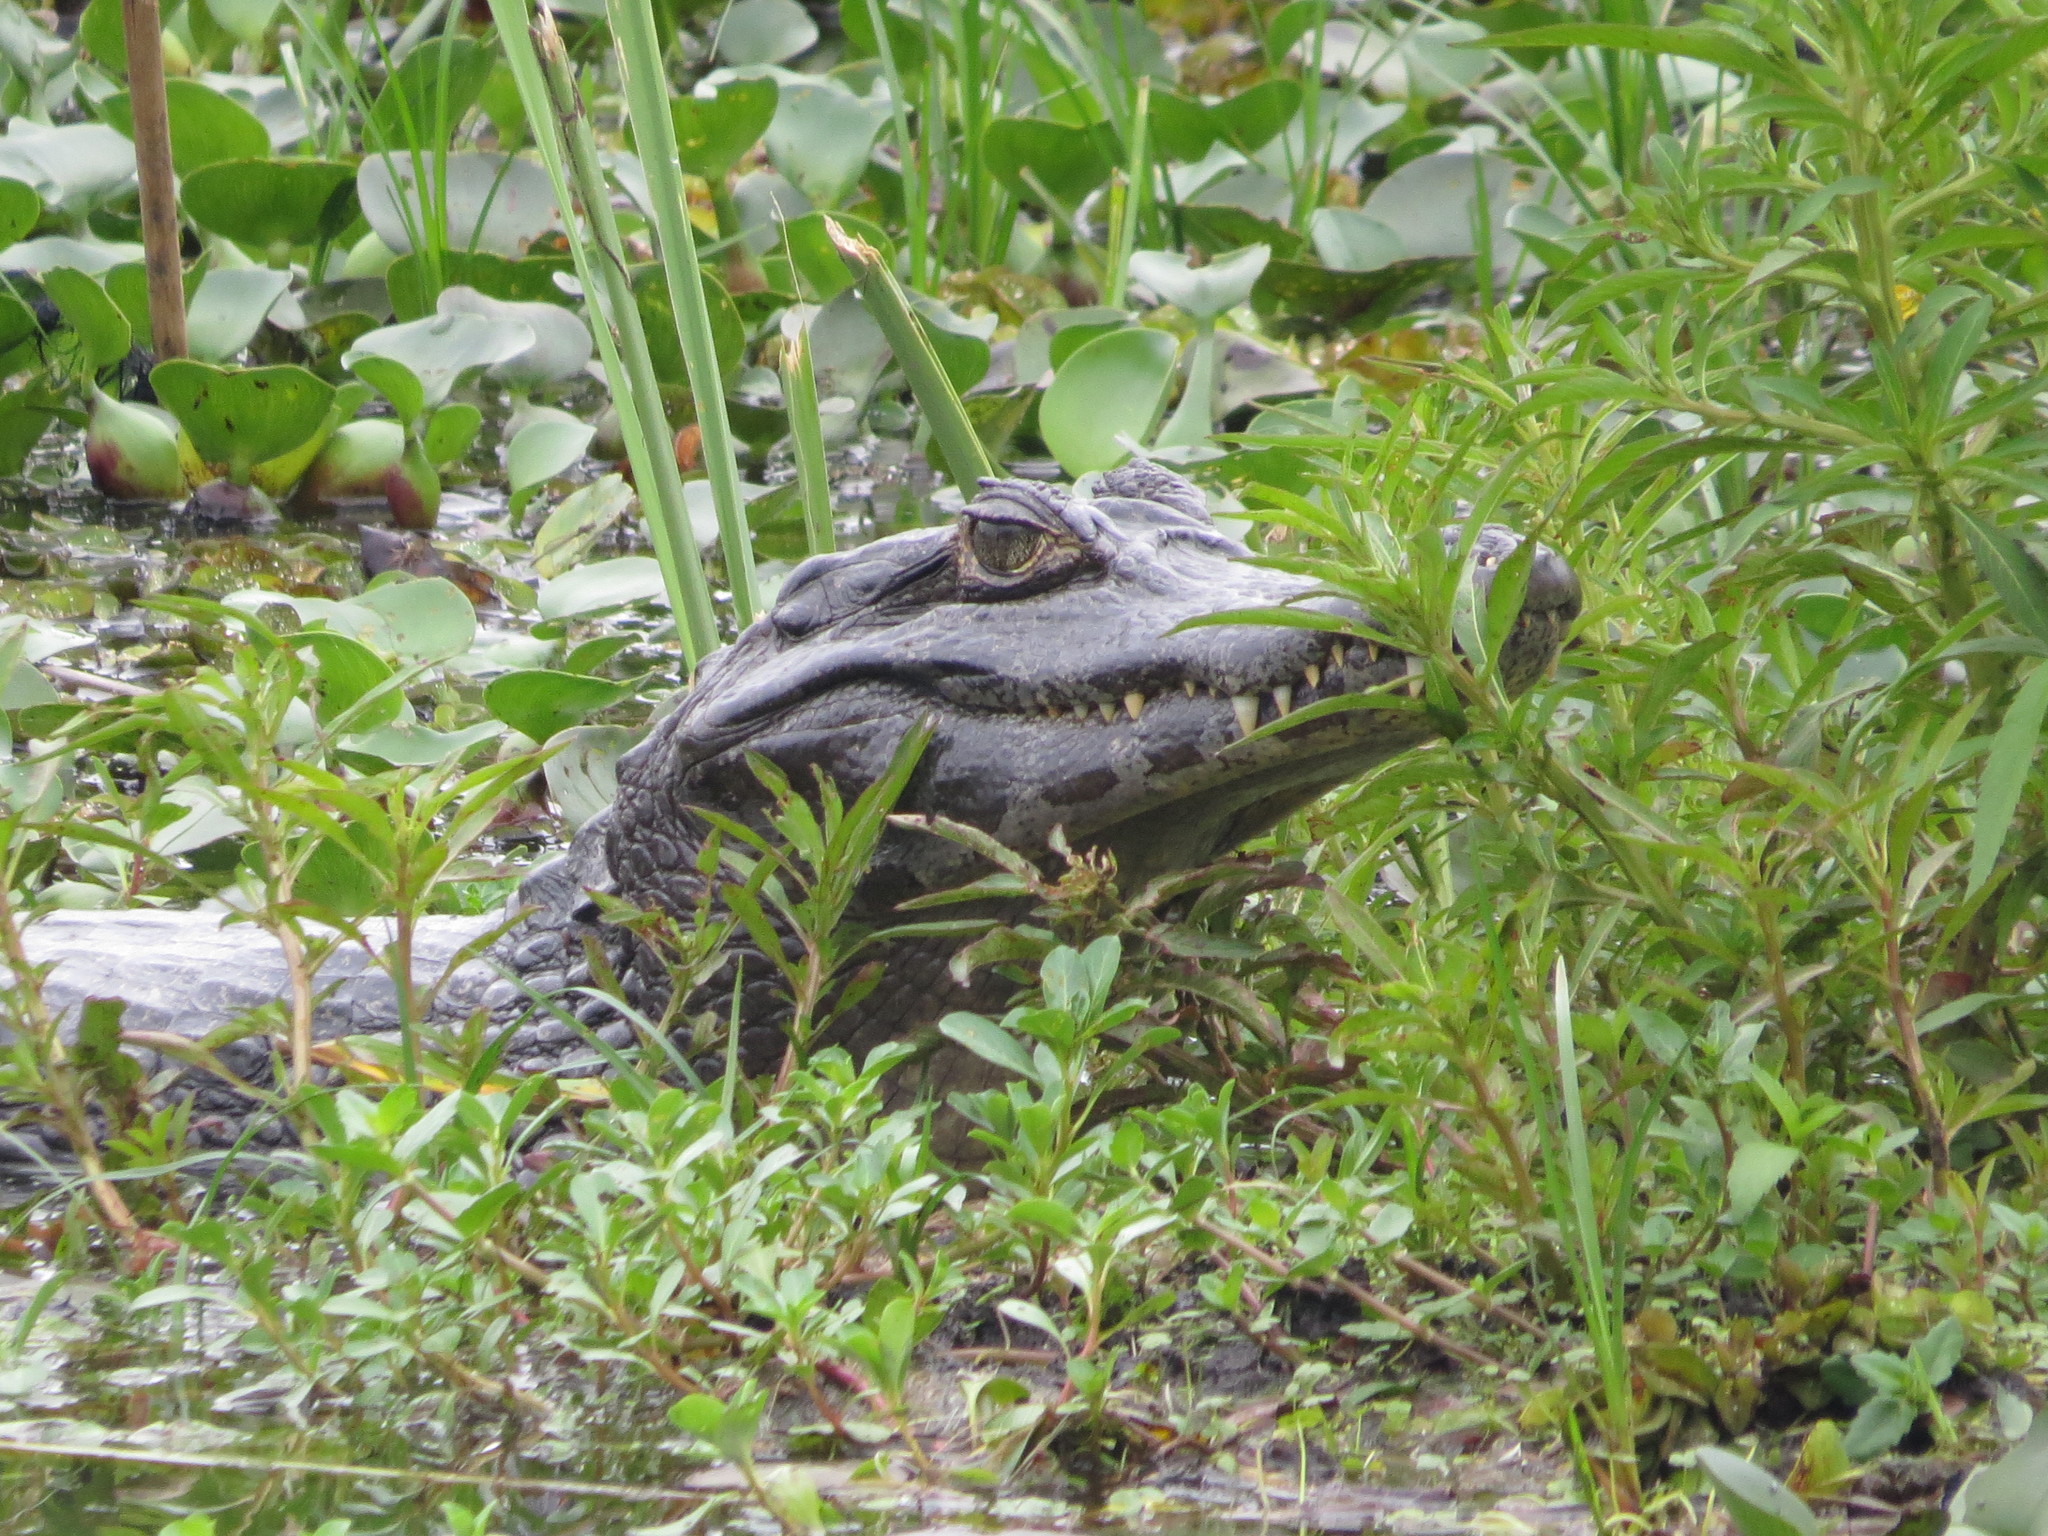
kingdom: Animalia
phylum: Chordata
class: Crocodylia
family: Alligatoridae
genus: Caiman
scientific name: Caiman yacare
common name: Yacare caiman
